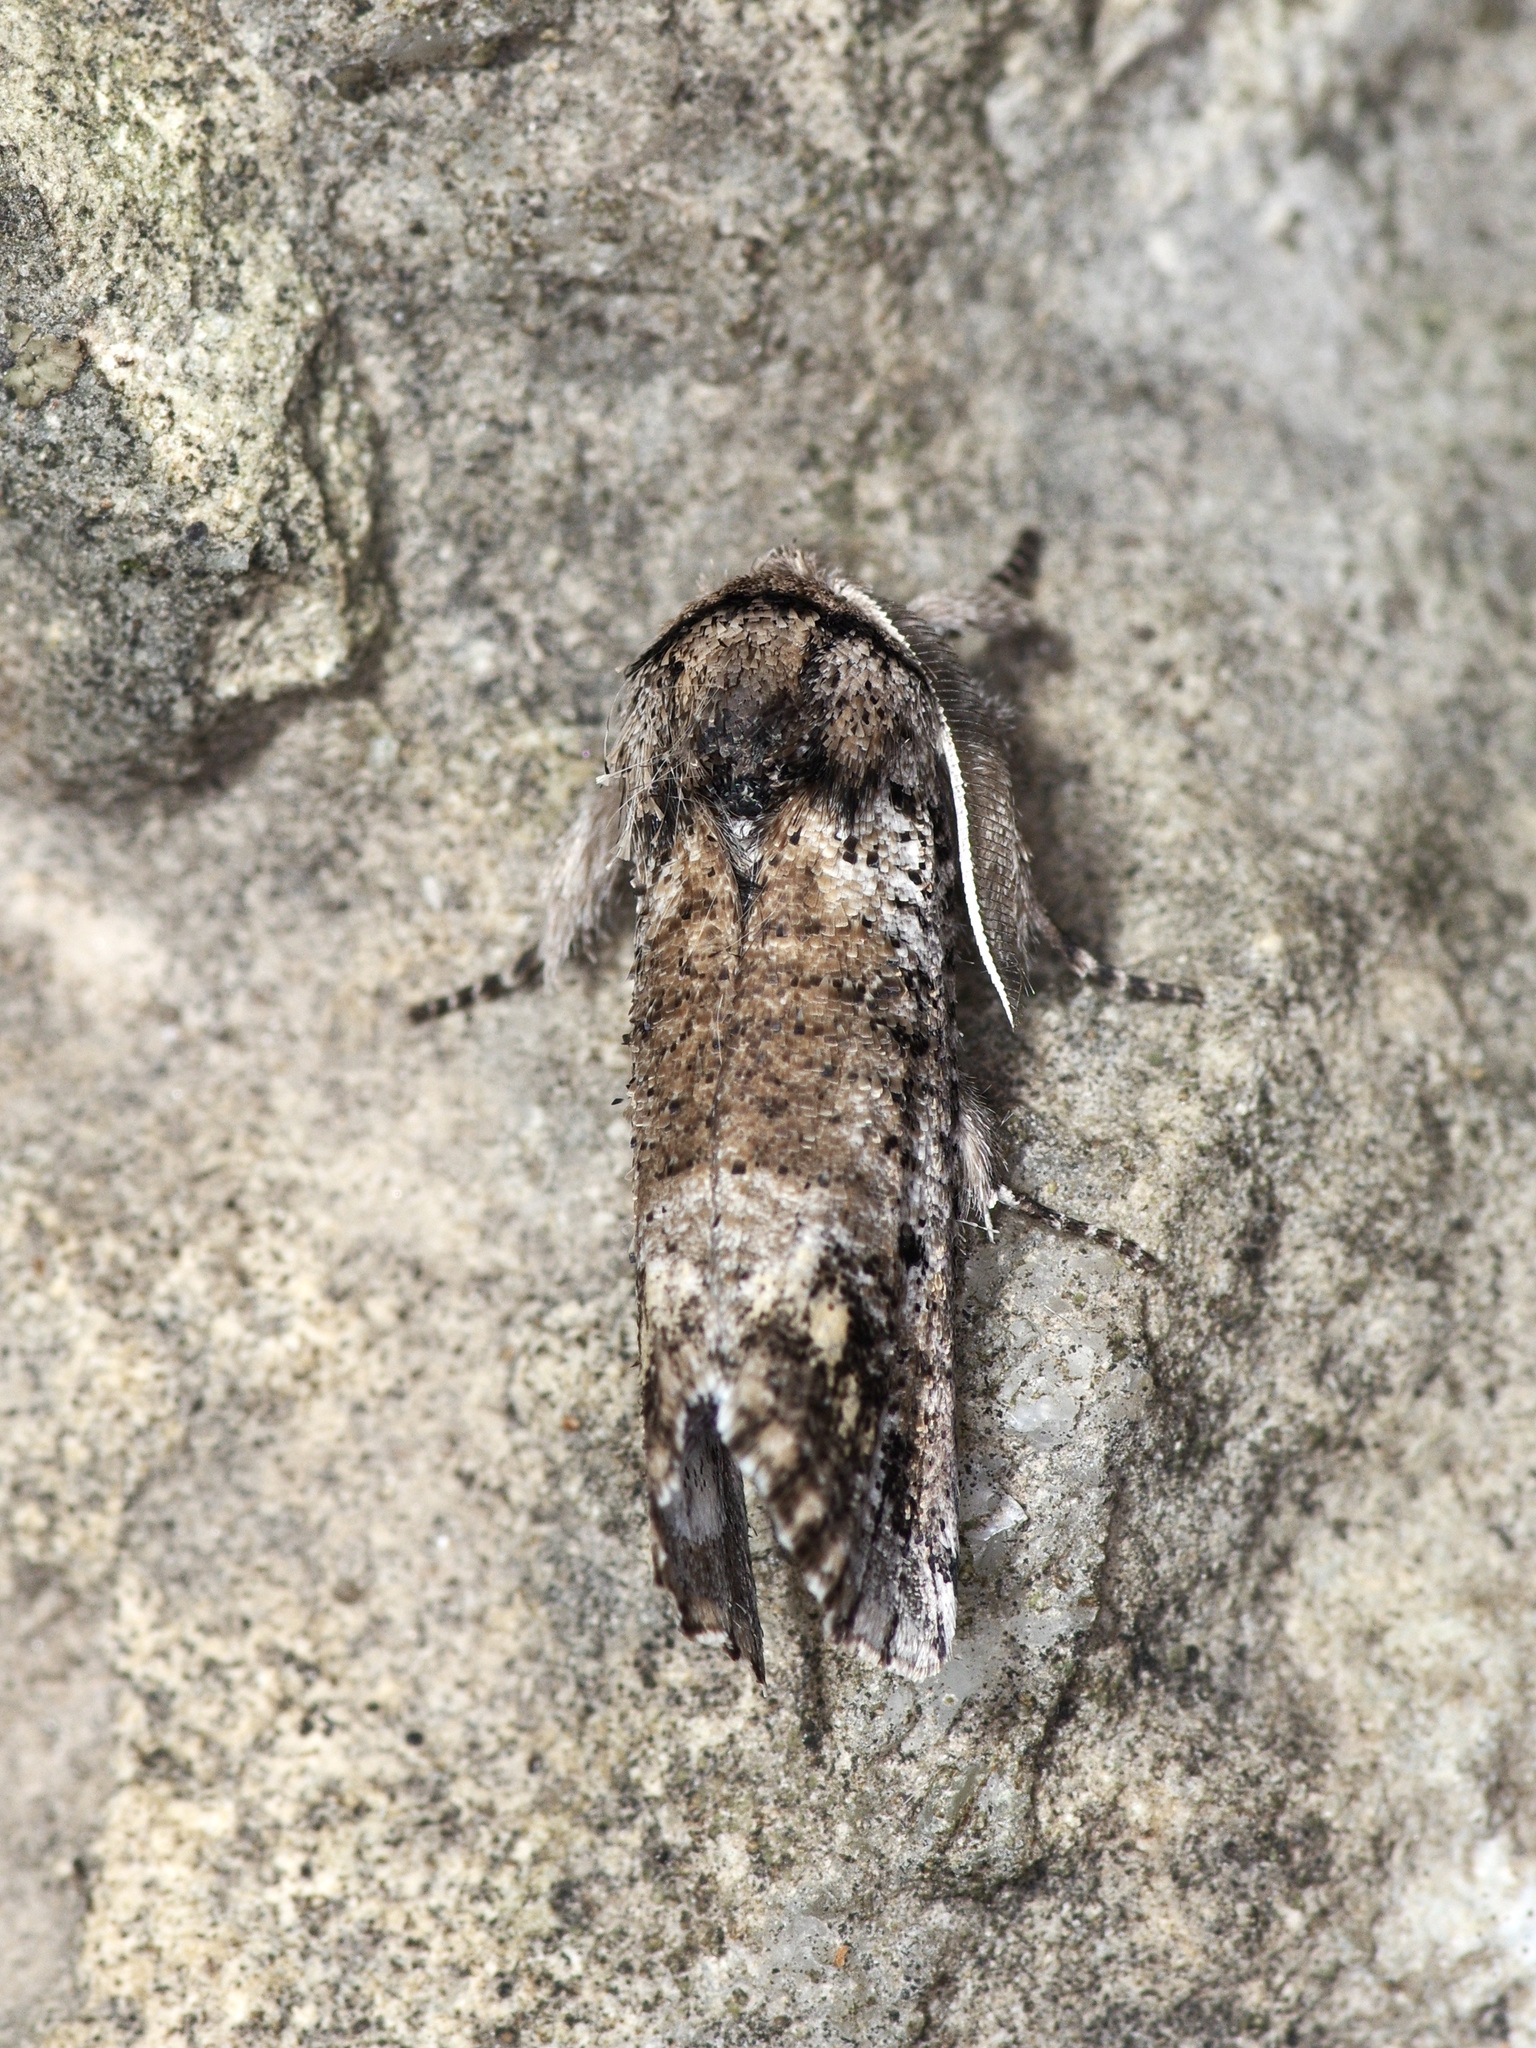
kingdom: Animalia
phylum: Arthropoda
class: Insecta
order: Lepidoptera
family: Erebidae
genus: Aon
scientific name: Aon noctuiformis
